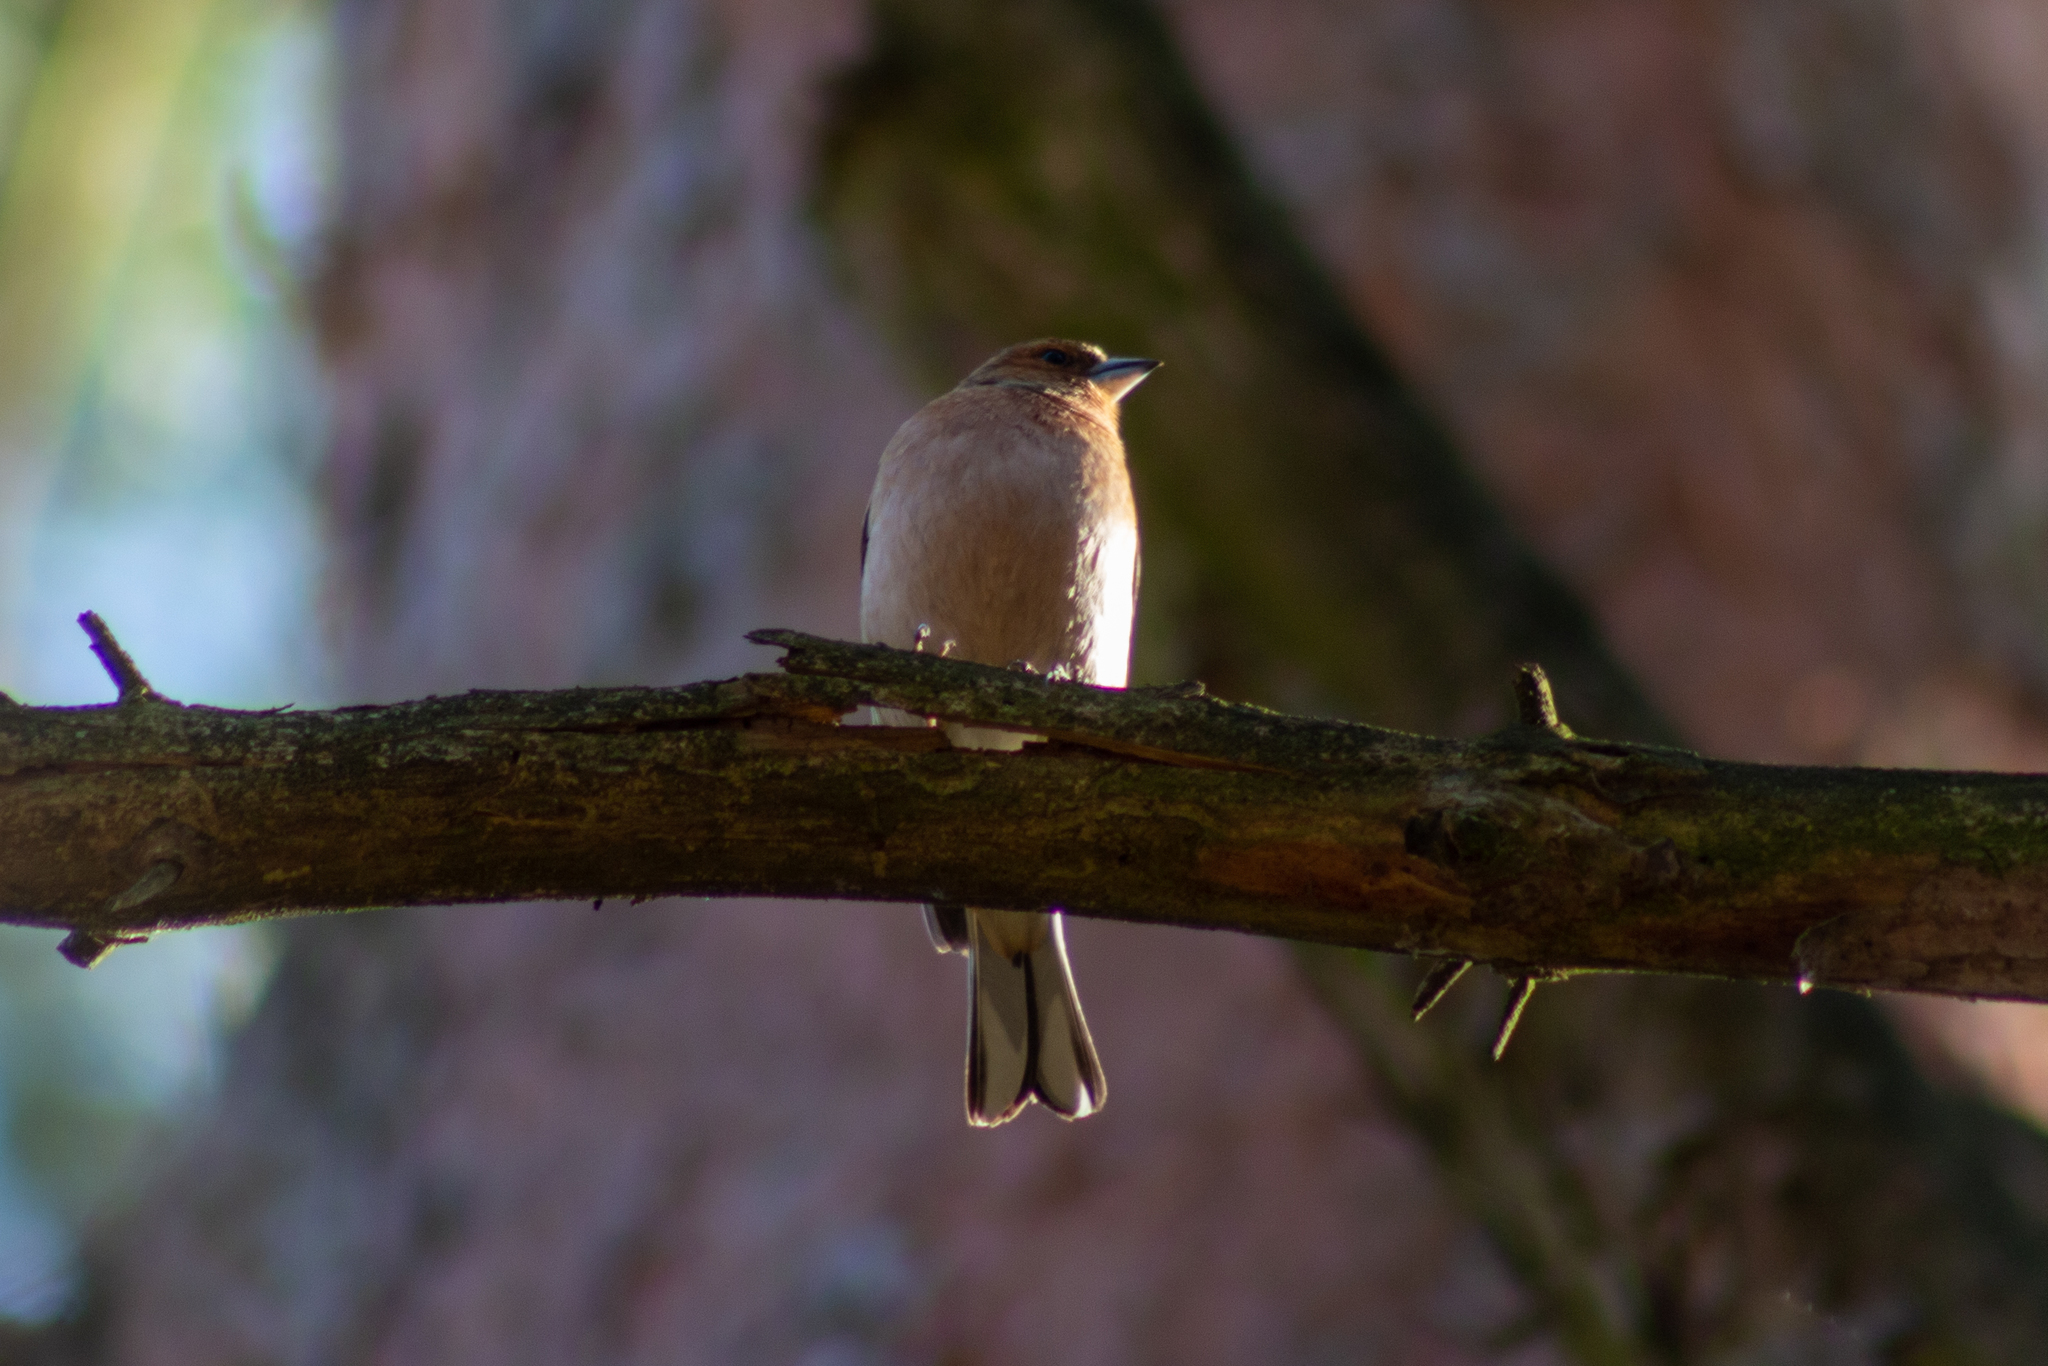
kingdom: Animalia
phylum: Chordata
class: Aves
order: Passeriformes
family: Fringillidae
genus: Fringilla
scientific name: Fringilla coelebs
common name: Common chaffinch
